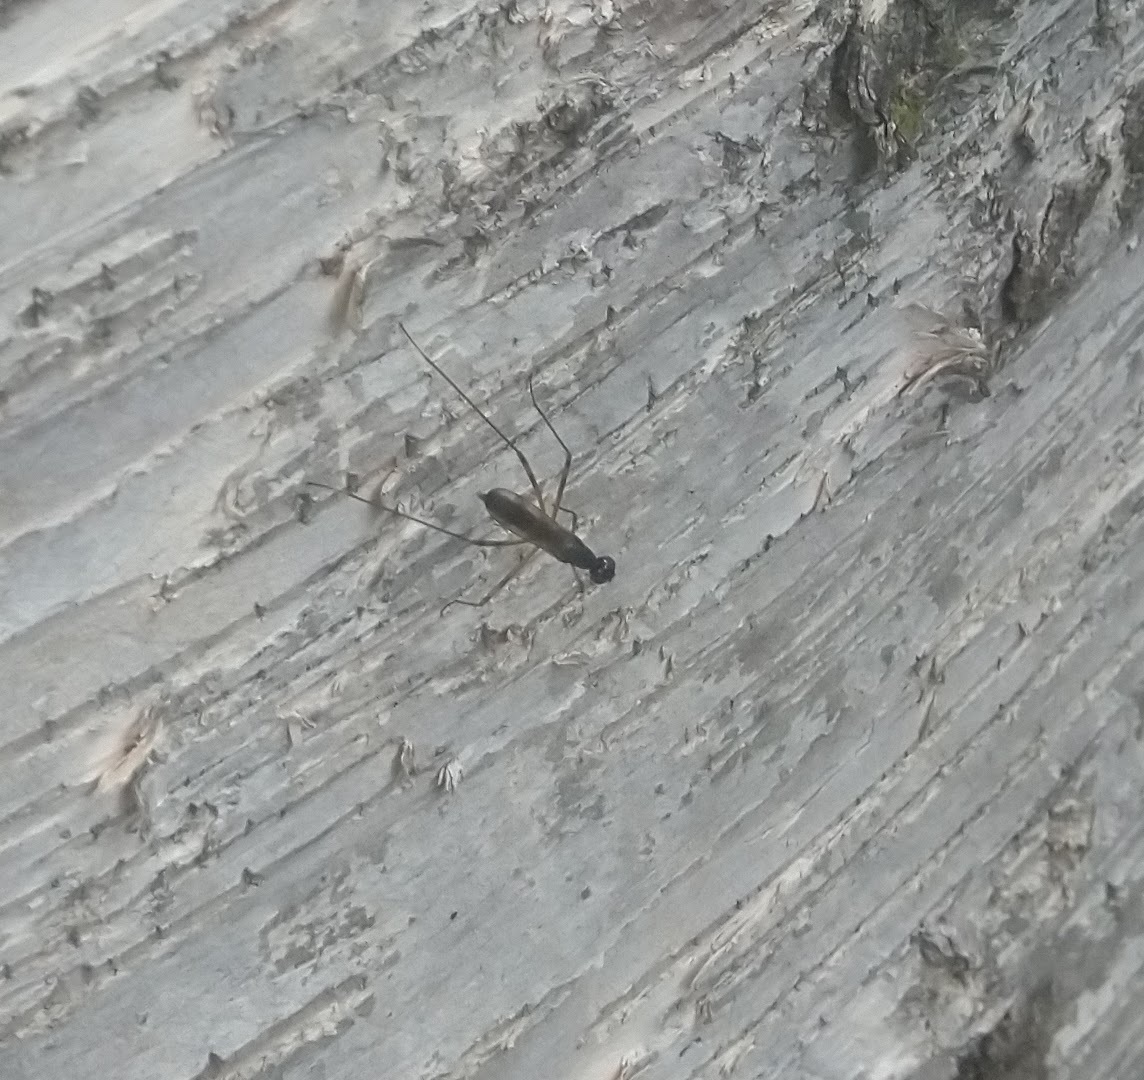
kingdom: Animalia
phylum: Arthropoda
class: Insecta
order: Diptera
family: Micropezidae
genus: Rainieria
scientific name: Rainieria antennaepes
